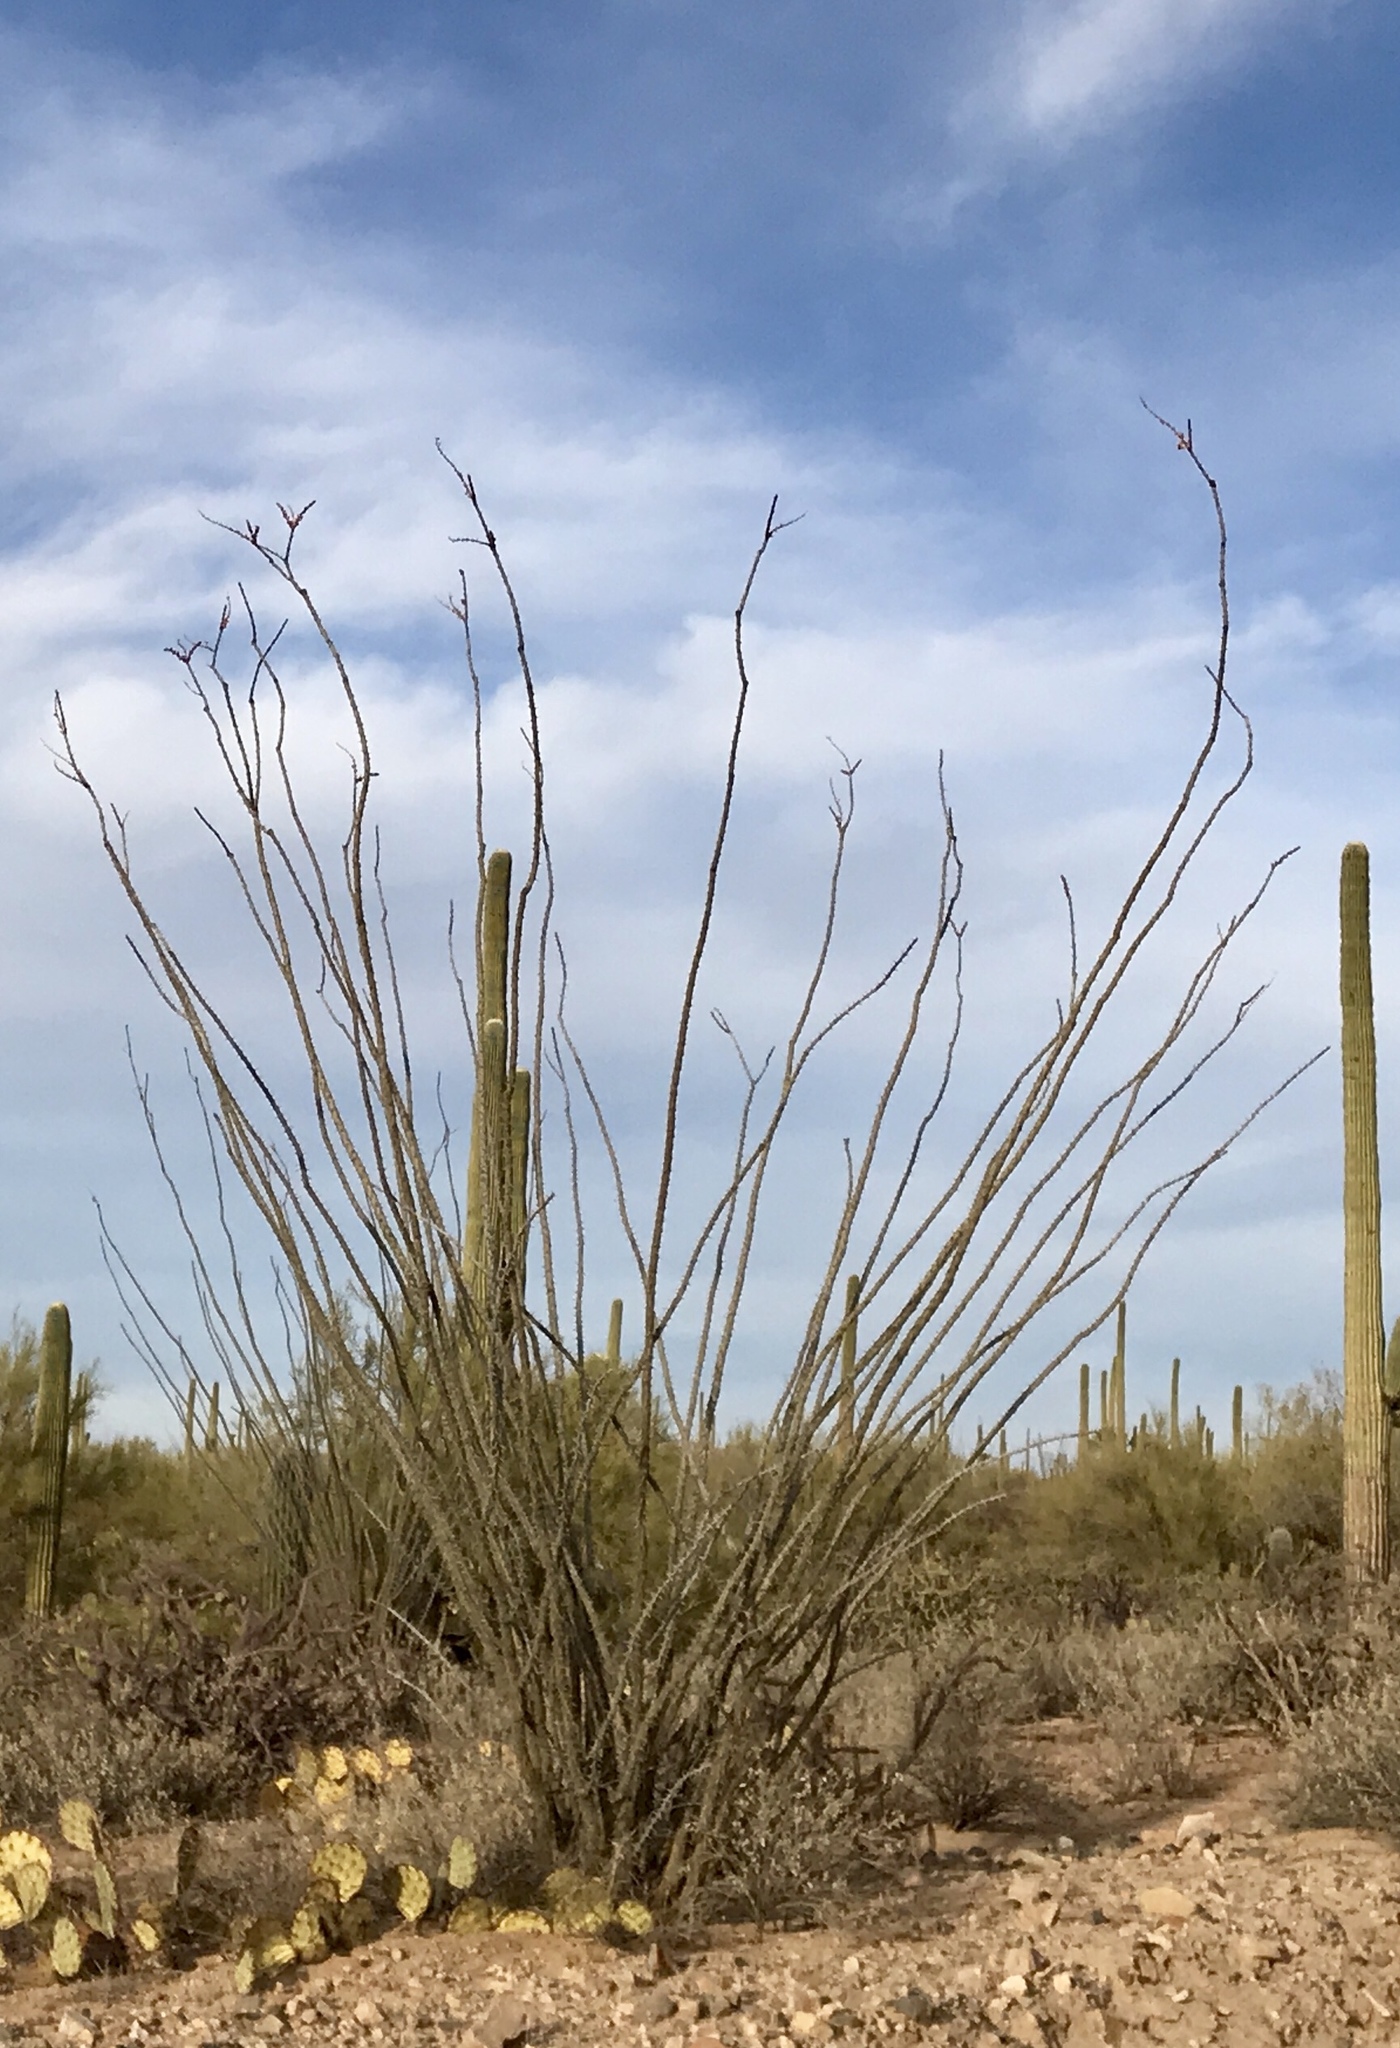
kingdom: Plantae
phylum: Tracheophyta
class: Magnoliopsida
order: Ericales
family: Fouquieriaceae
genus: Fouquieria
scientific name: Fouquieria splendens
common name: Vine-cactus
